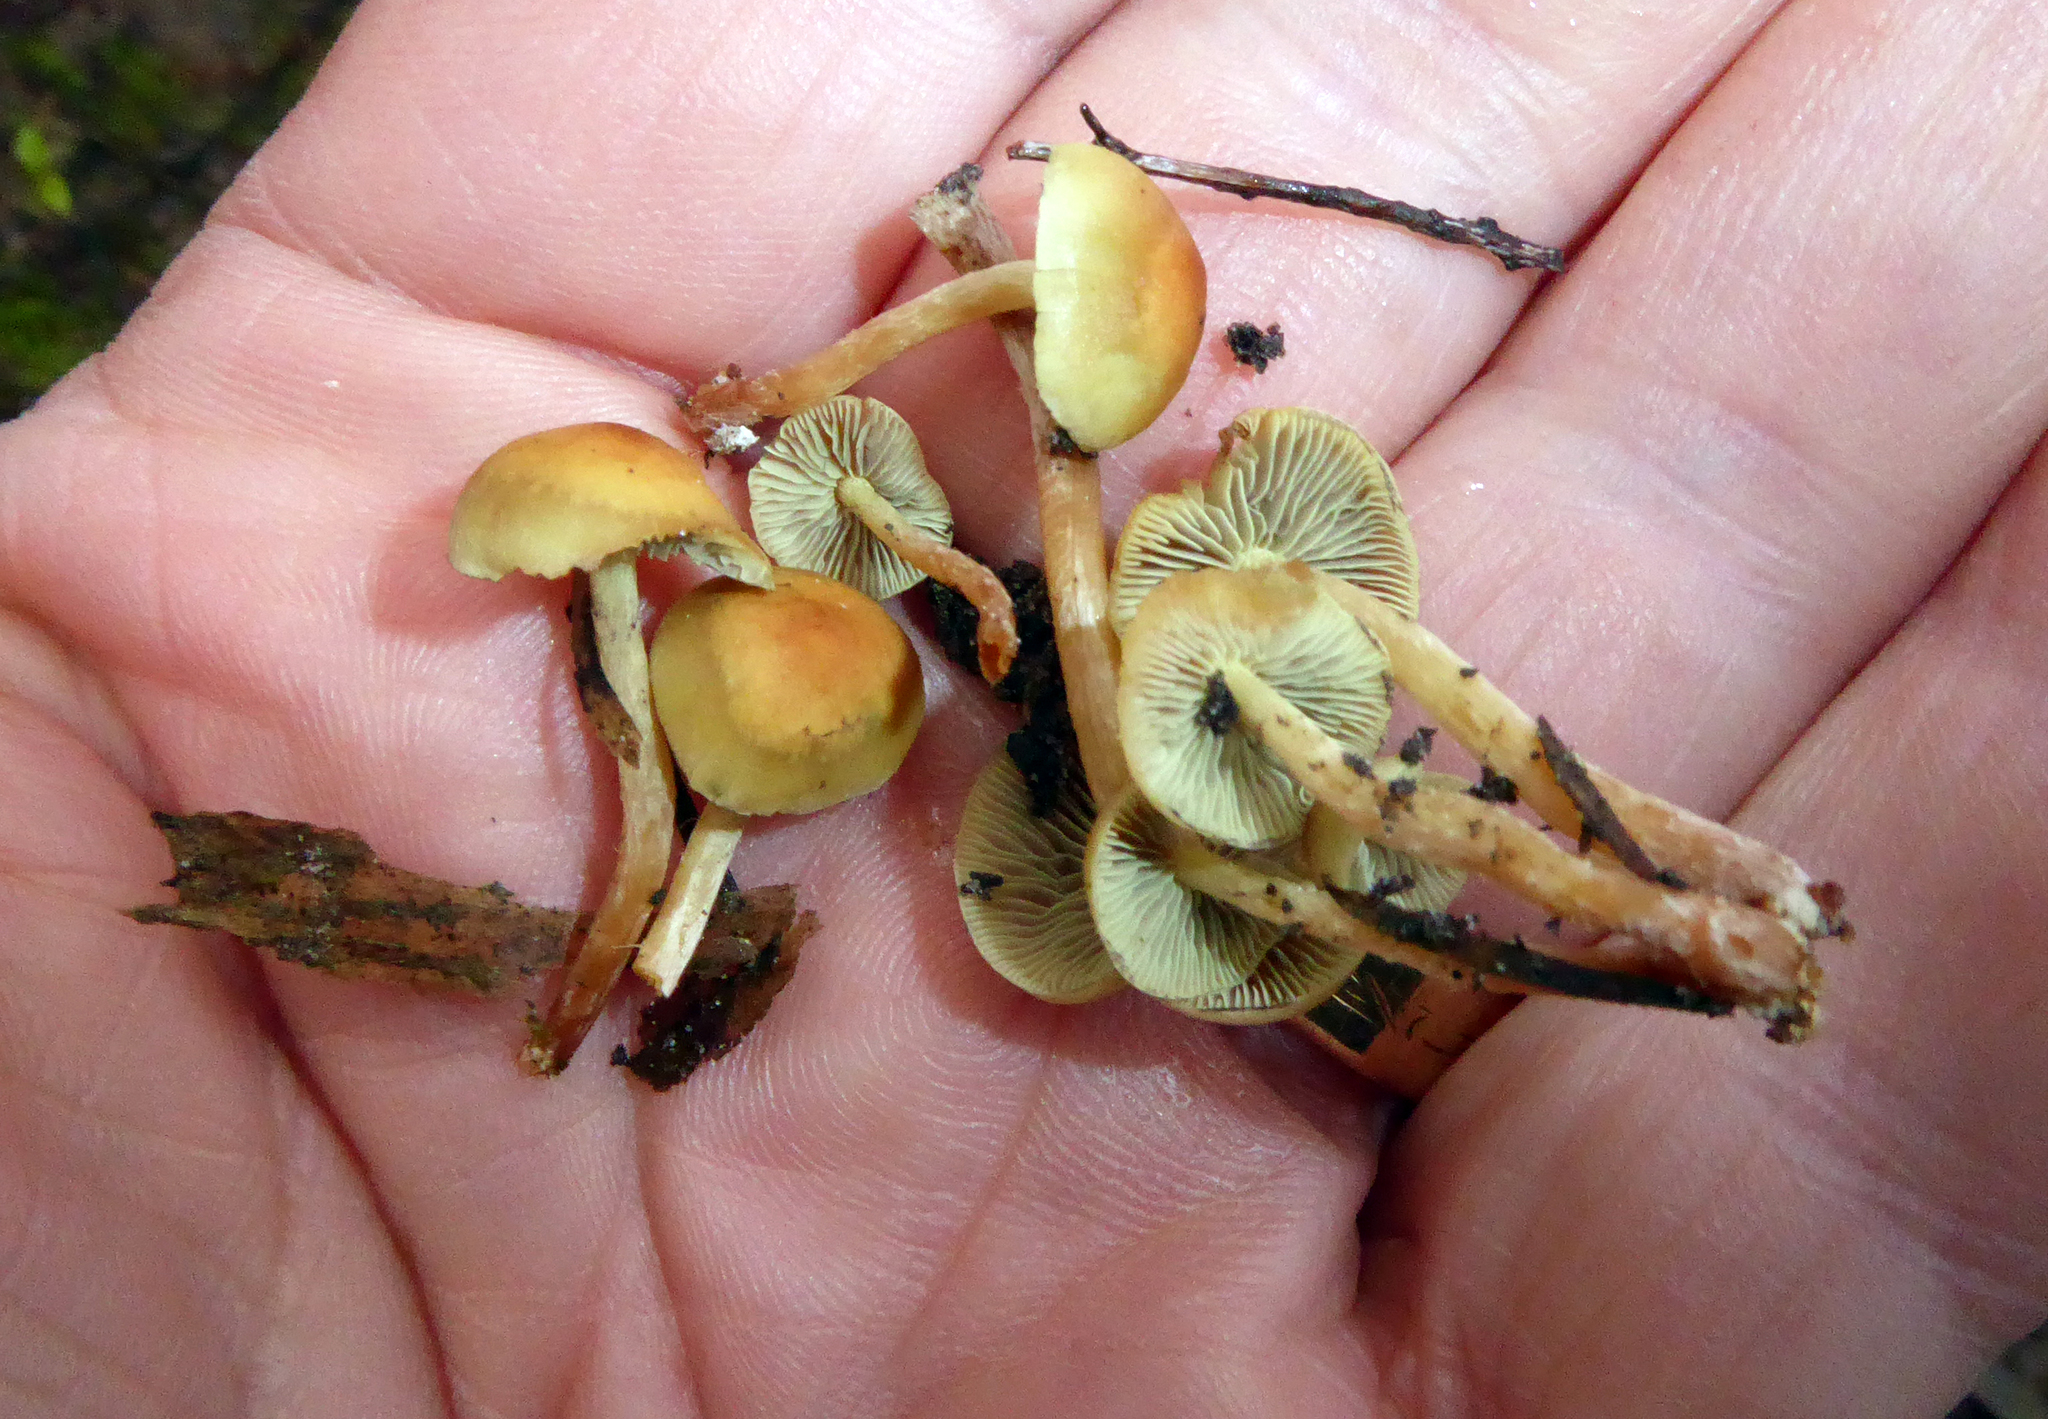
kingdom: Fungi
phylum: Basidiomycota
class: Agaricomycetes
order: Agaricales
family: Strophariaceae
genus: Hypholoma
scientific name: Hypholoma acutum
